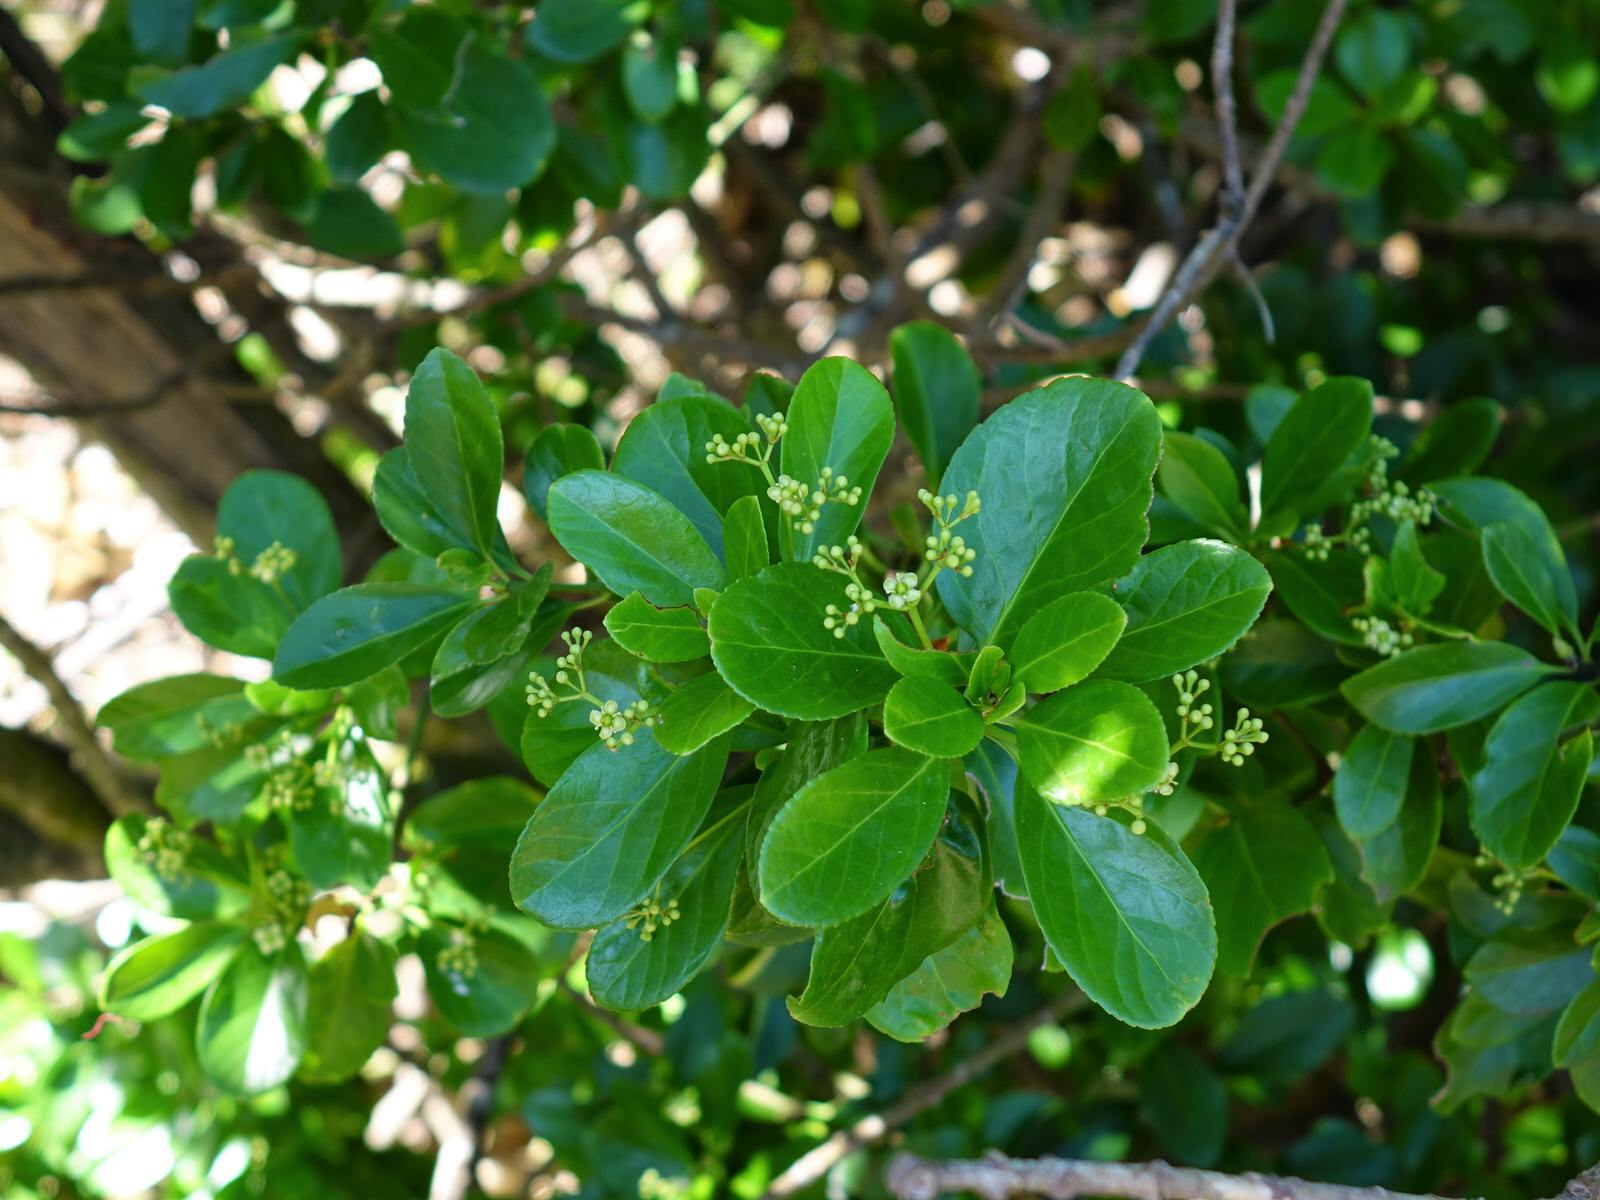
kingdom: Plantae
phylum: Tracheophyta
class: Magnoliopsida
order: Celastrales
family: Celastraceae
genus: Euonymus
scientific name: Euonymus japonicus
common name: Japanese spindletree
